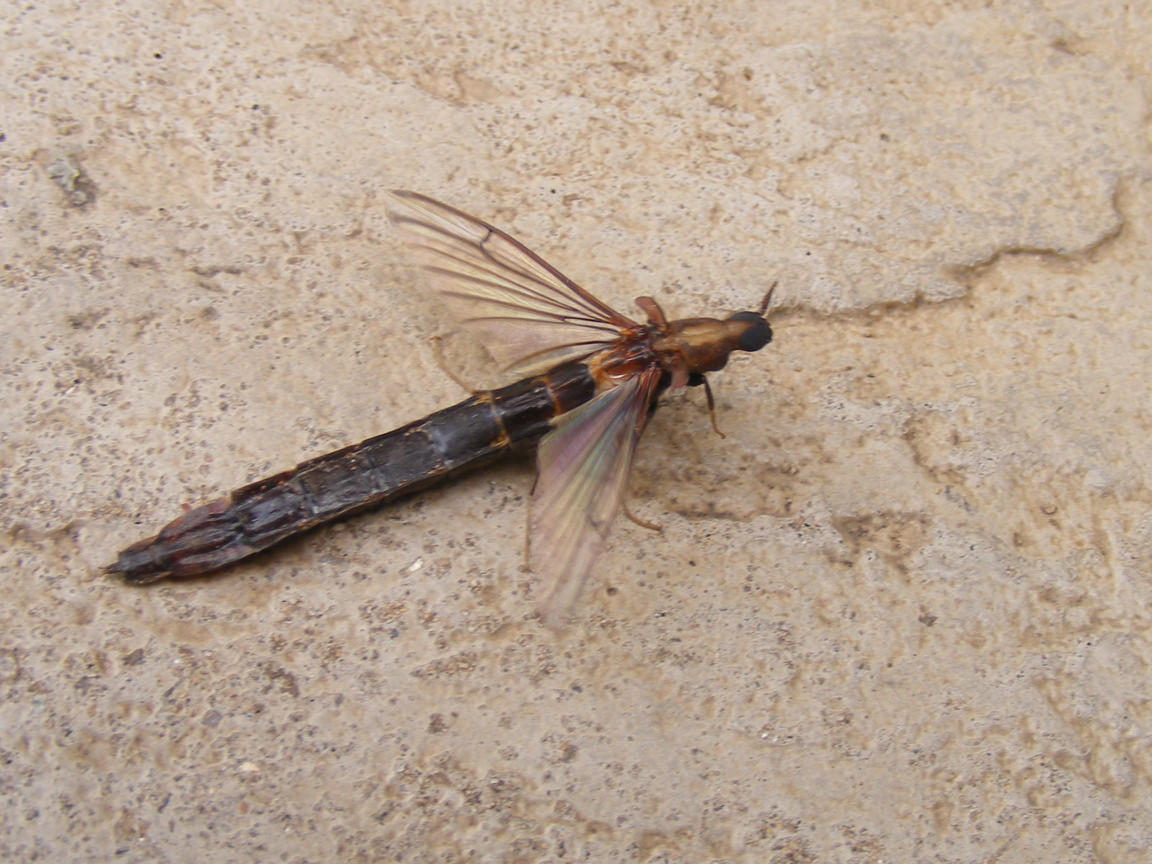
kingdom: Animalia
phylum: Arthropoda
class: Insecta
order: Coleoptera
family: Lymexylidae
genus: Atractocerus
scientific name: Atractocerus brevicornis
